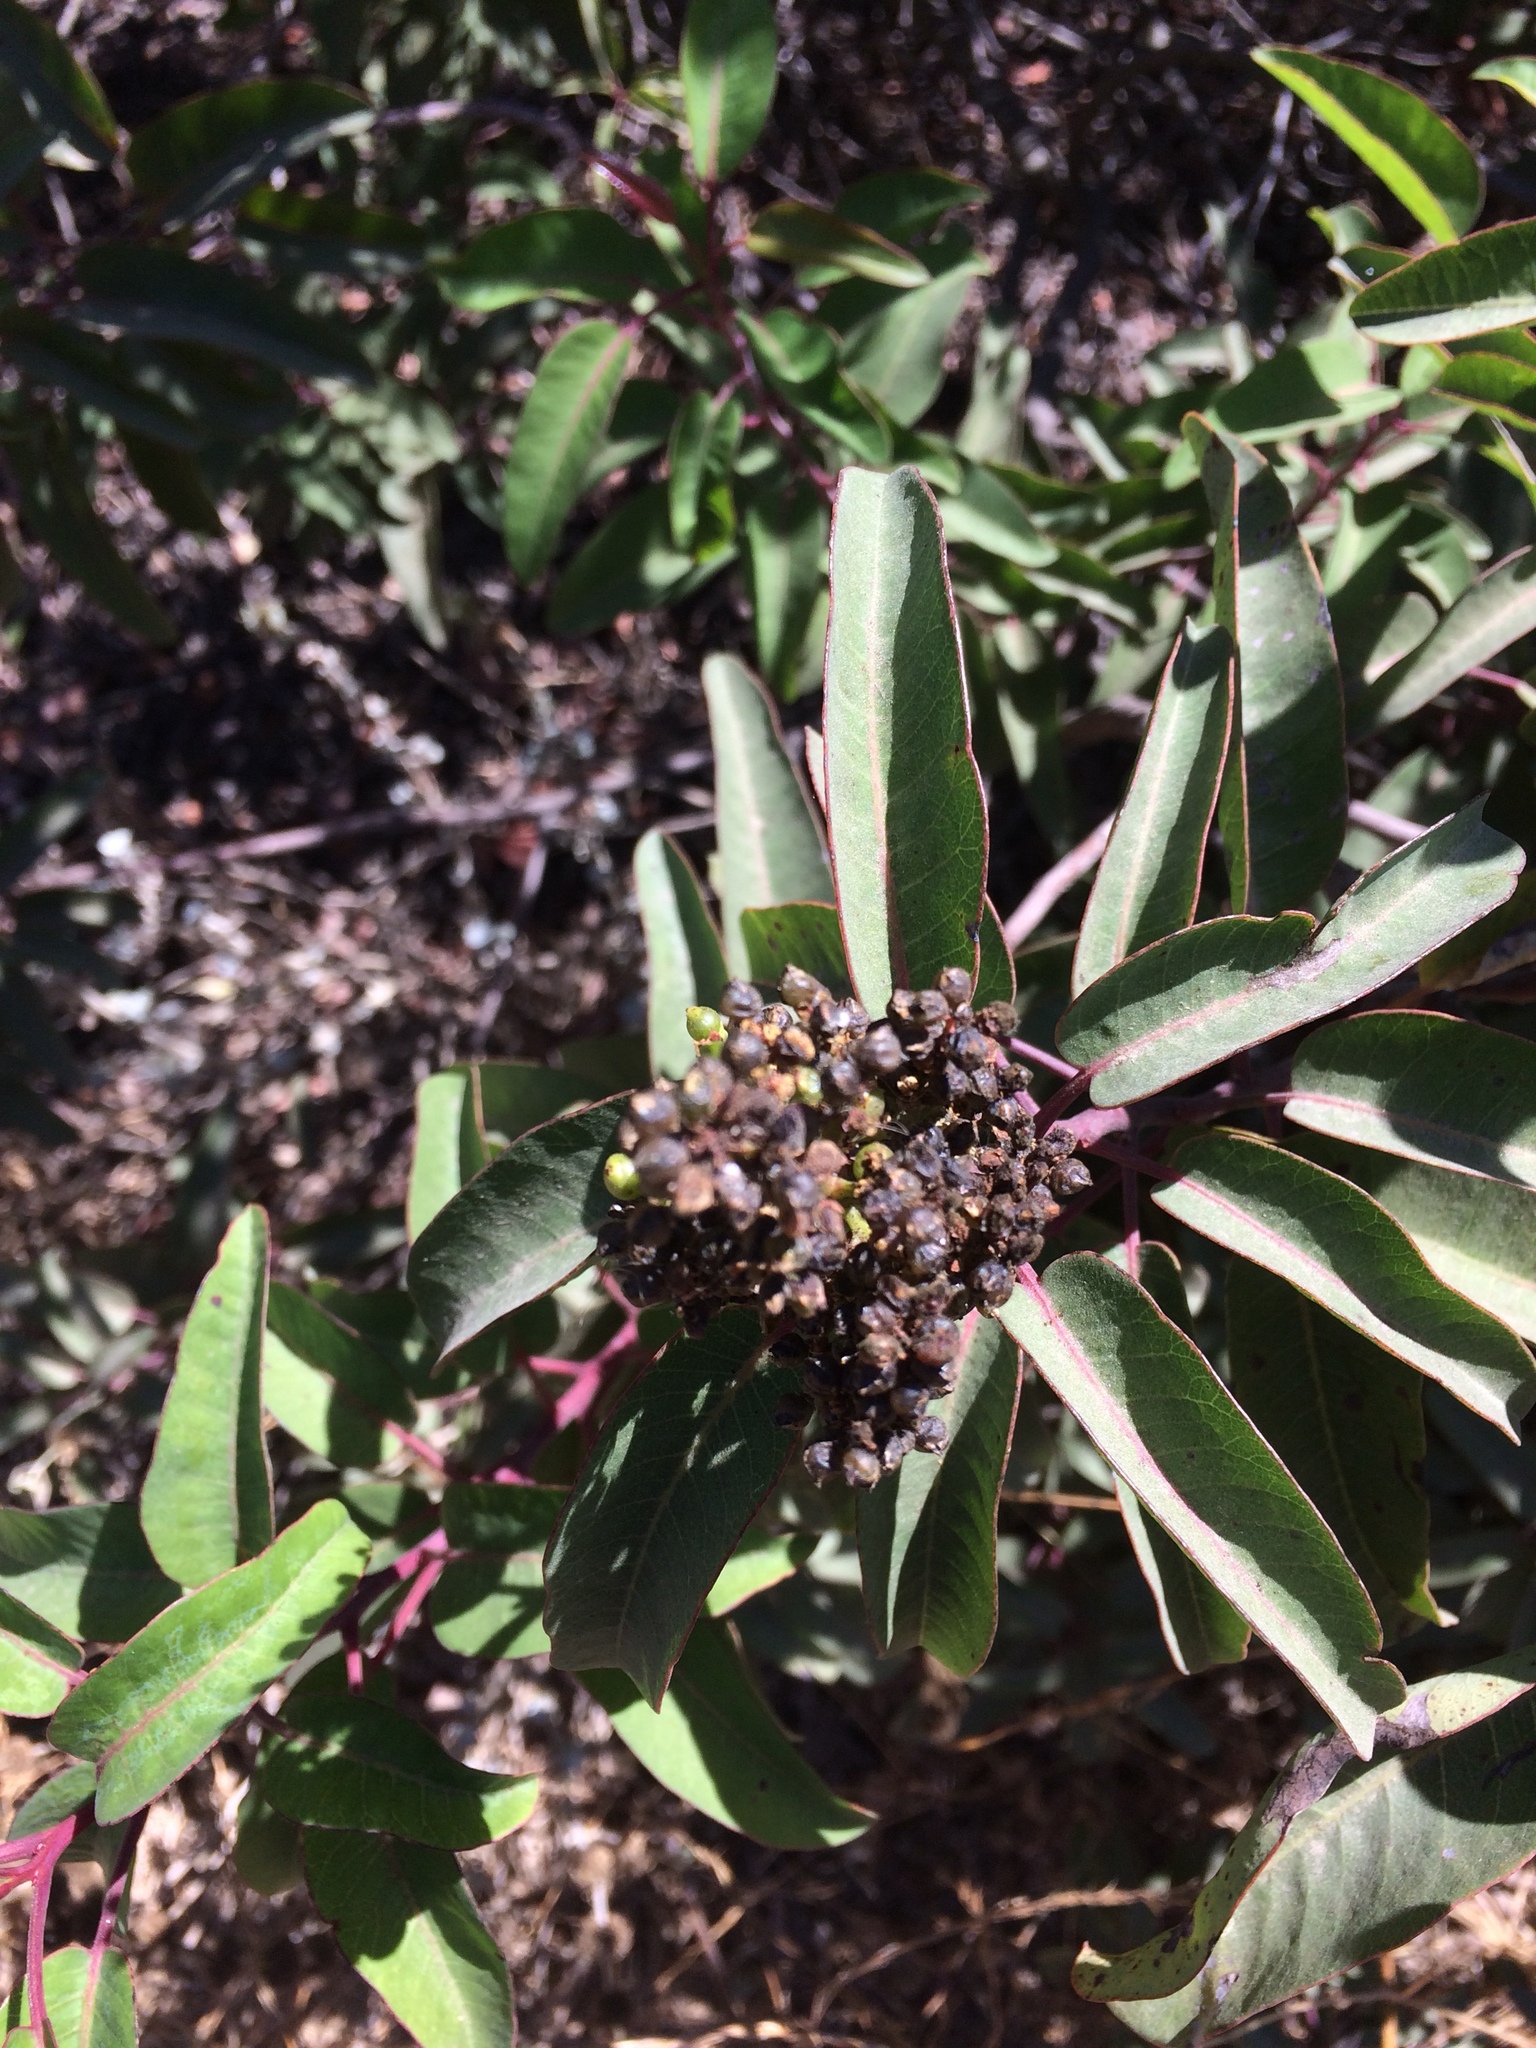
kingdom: Plantae
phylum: Tracheophyta
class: Magnoliopsida
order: Sapindales
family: Anacardiaceae
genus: Malosma
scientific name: Malosma laurina
